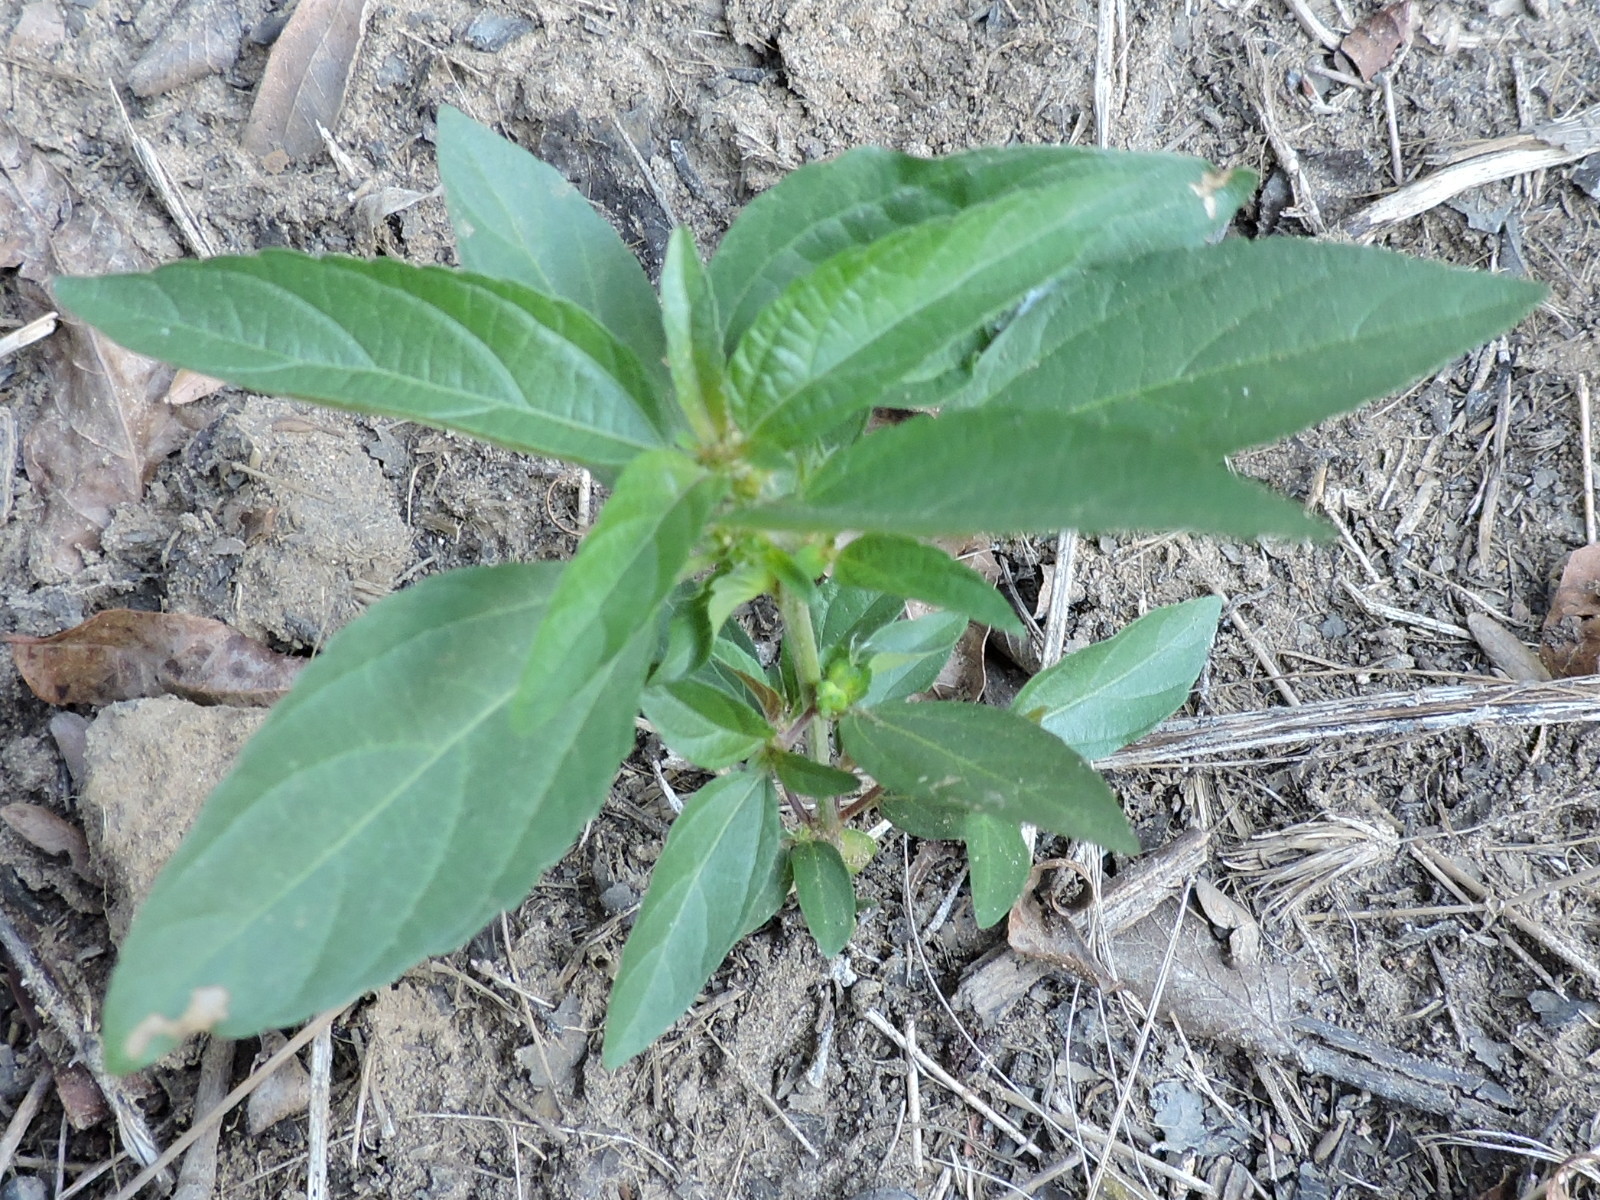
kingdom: Plantae
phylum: Tracheophyta
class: Magnoliopsida
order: Malpighiales
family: Euphorbiaceae
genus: Acalypha
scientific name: Acalypha phleoides
